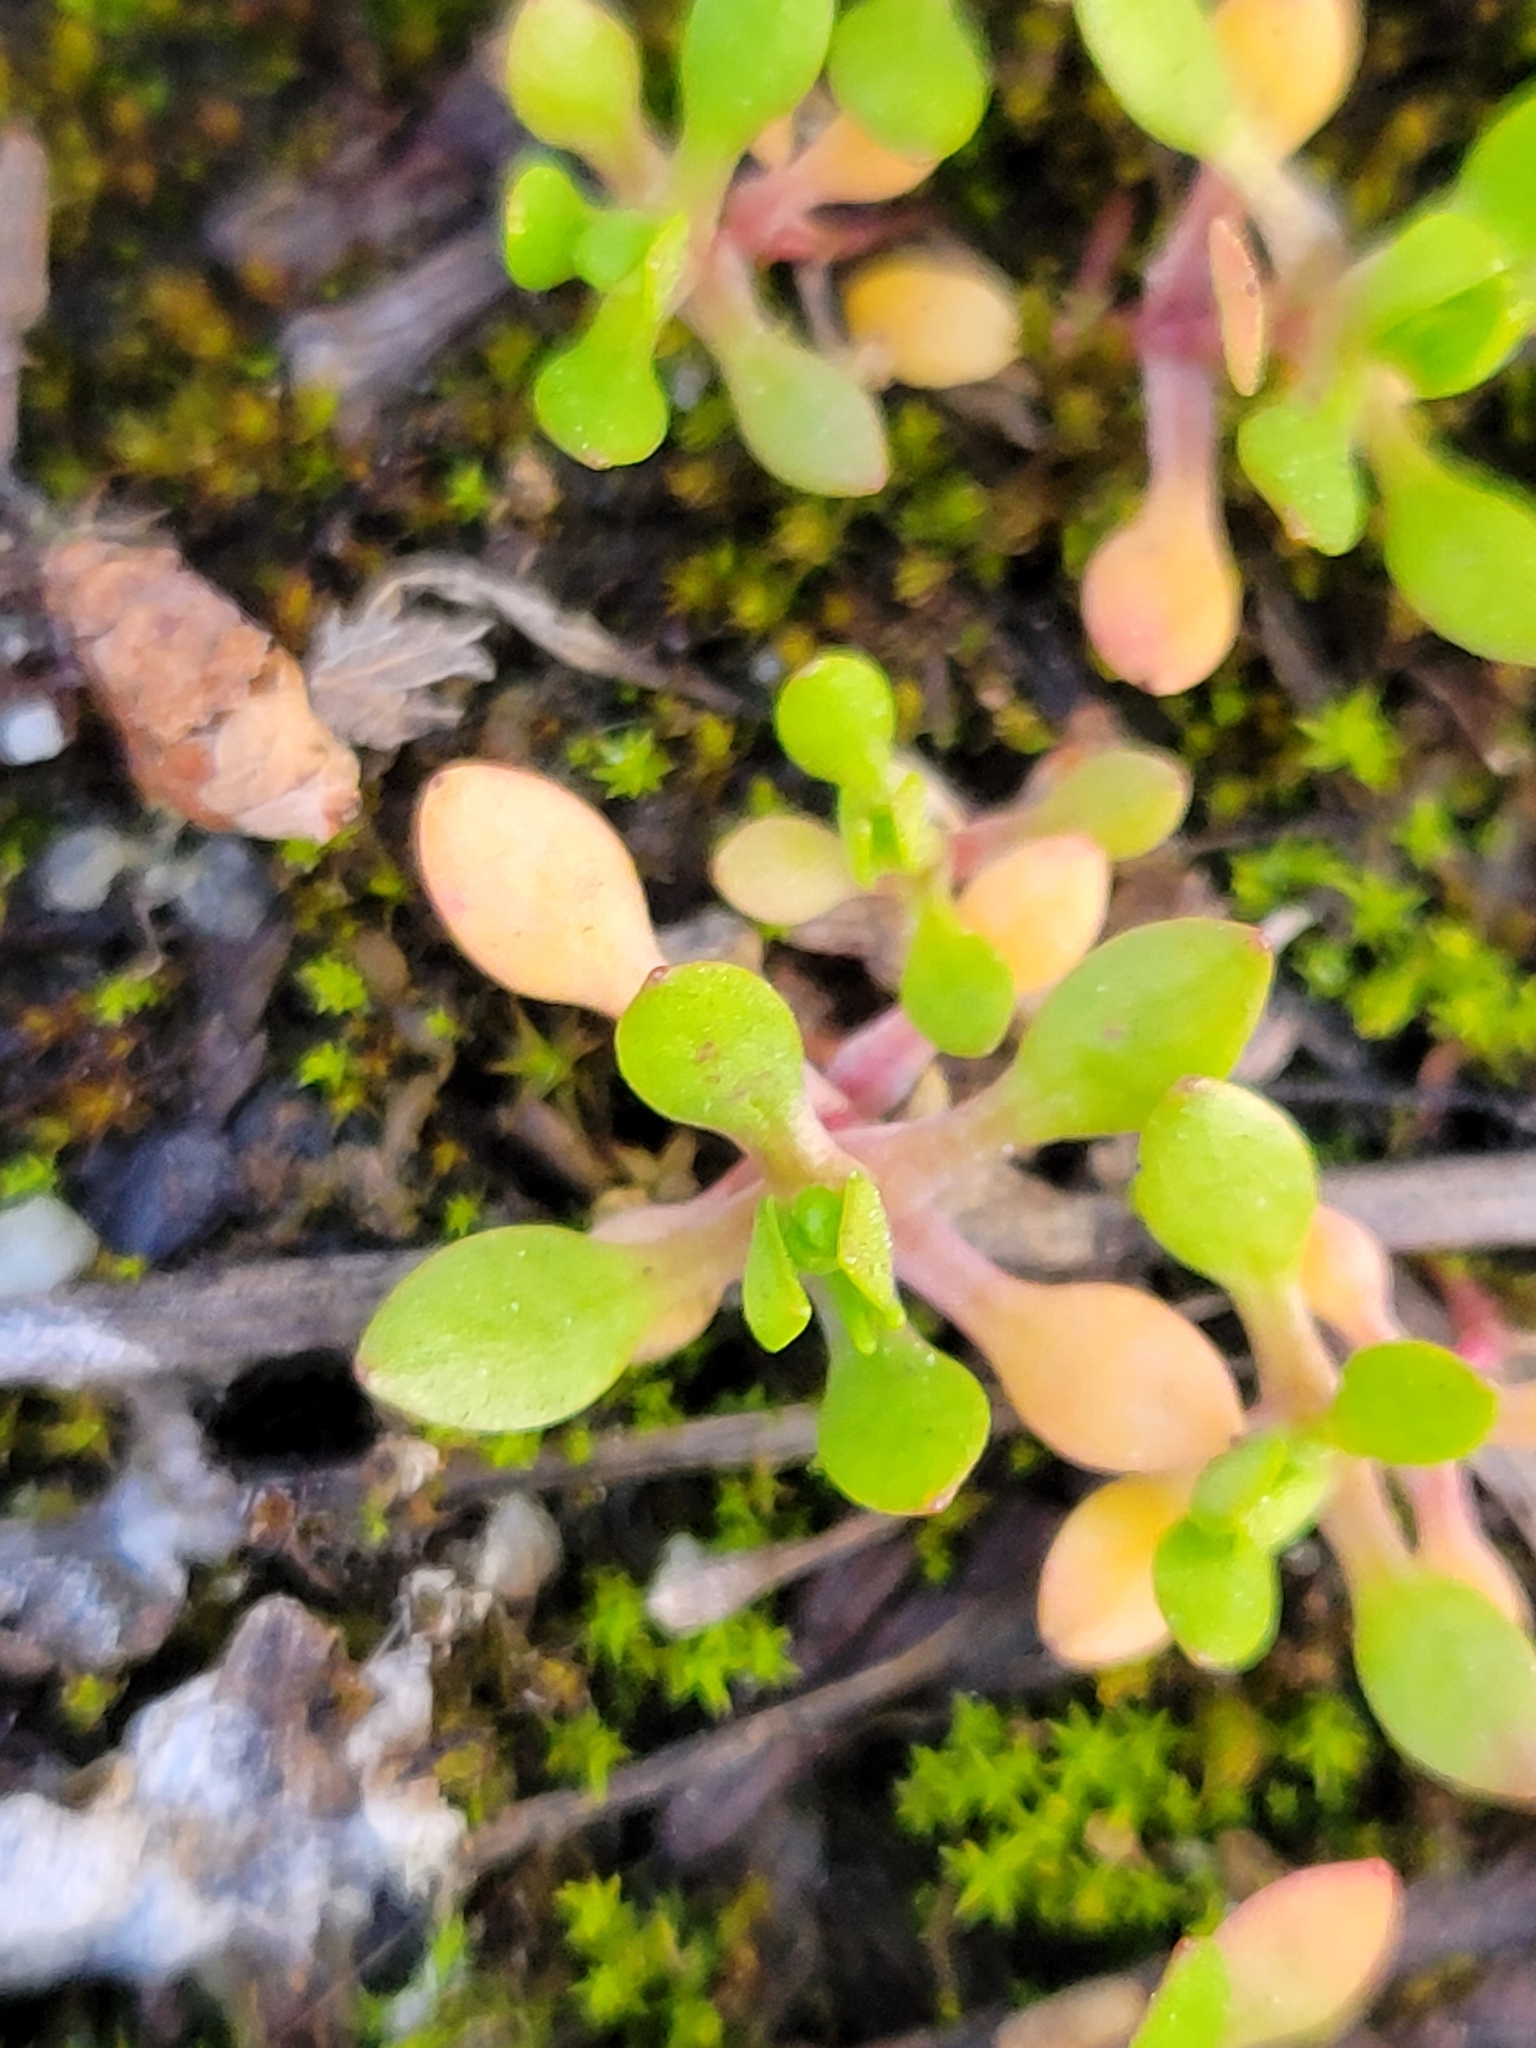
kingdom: Plantae
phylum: Tracheophyta
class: Magnoliopsida
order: Caryophyllales
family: Montiaceae
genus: Montia
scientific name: Montia fontana
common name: Blinks
